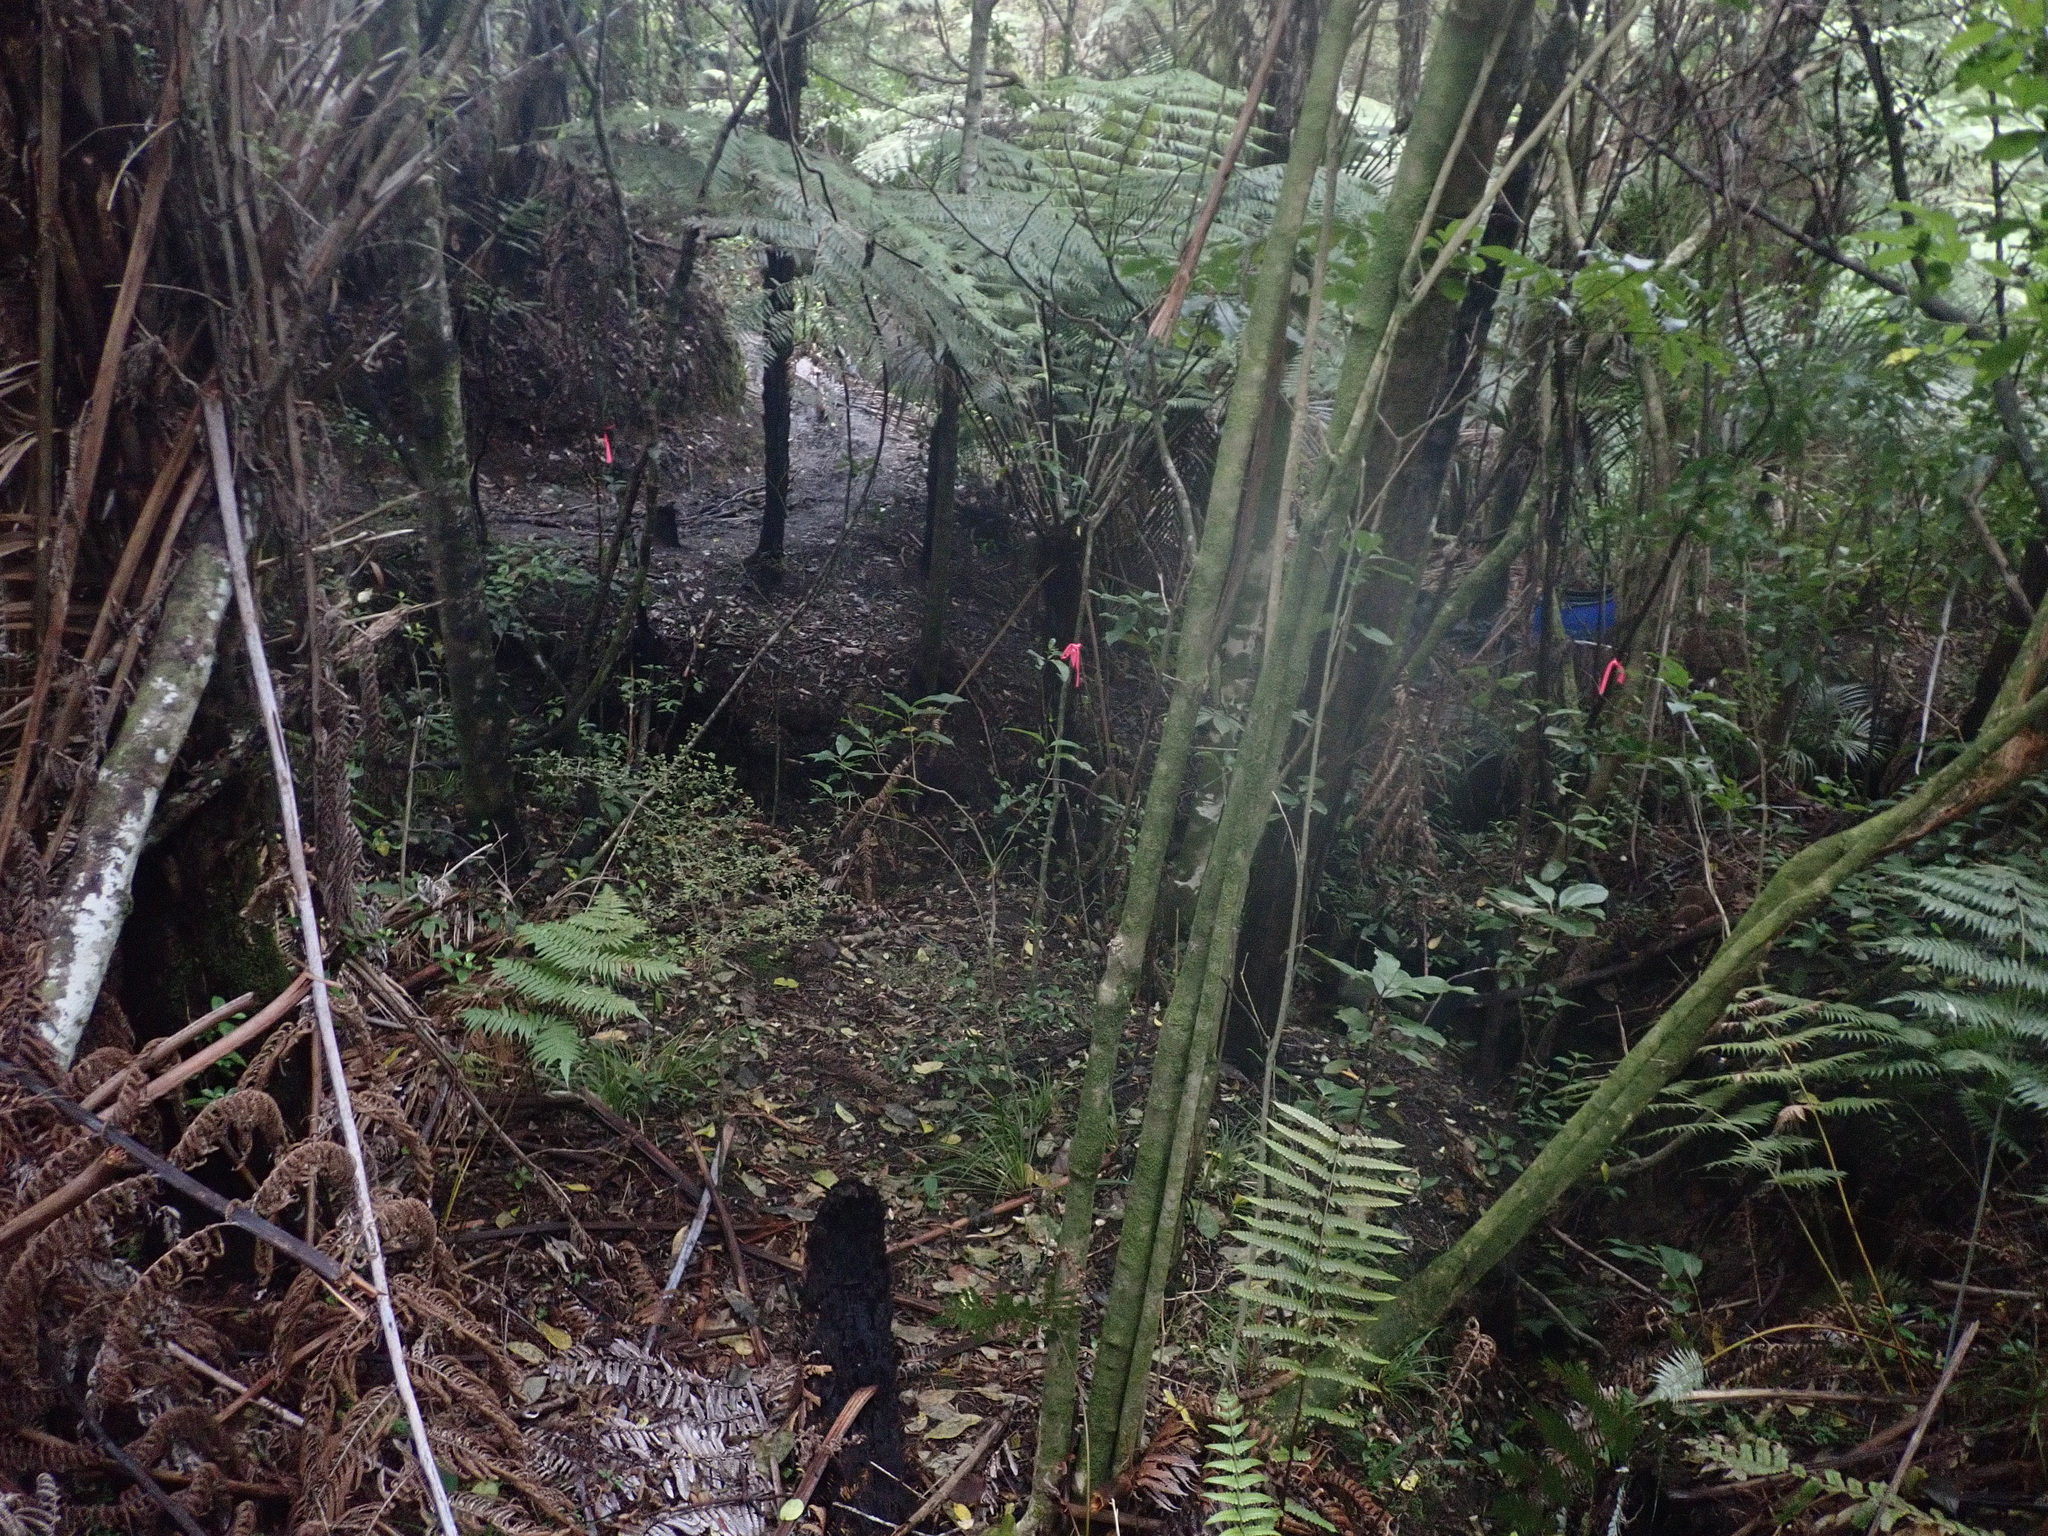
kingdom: Plantae
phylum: Tracheophyta
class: Magnoliopsida
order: Malpighiales
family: Violaceae
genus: Melicytus
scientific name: Melicytus ramiflorus
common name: Mahoe
